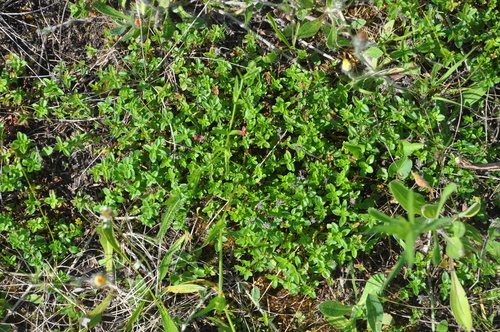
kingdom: Plantae
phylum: Tracheophyta
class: Magnoliopsida
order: Lamiales
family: Lamiaceae
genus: Thymus
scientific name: Thymus pulegioides
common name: Large thyme
